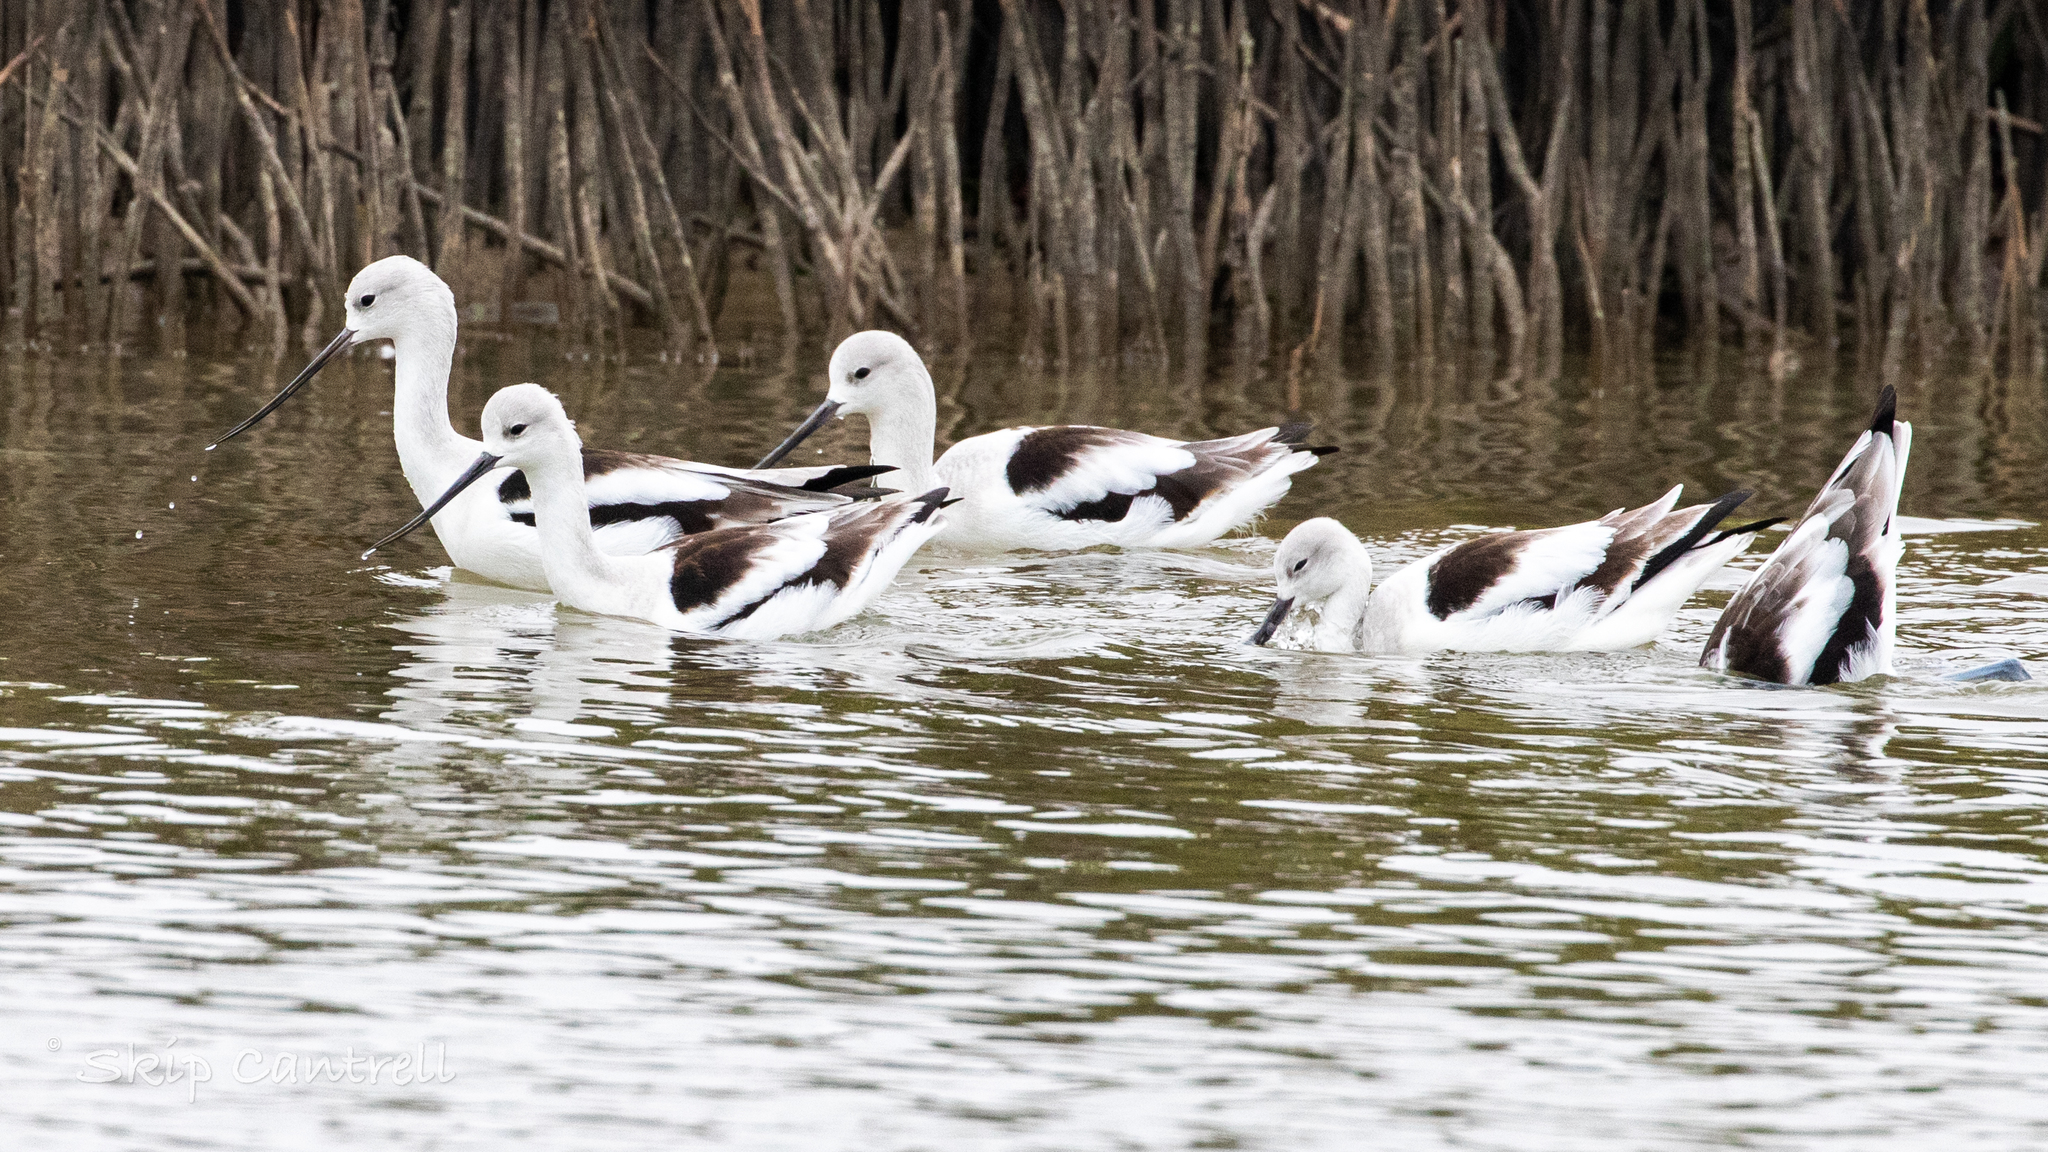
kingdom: Animalia
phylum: Chordata
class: Aves
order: Charadriiformes
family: Recurvirostridae
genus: Recurvirostra
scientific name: Recurvirostra americana
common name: American avocet
